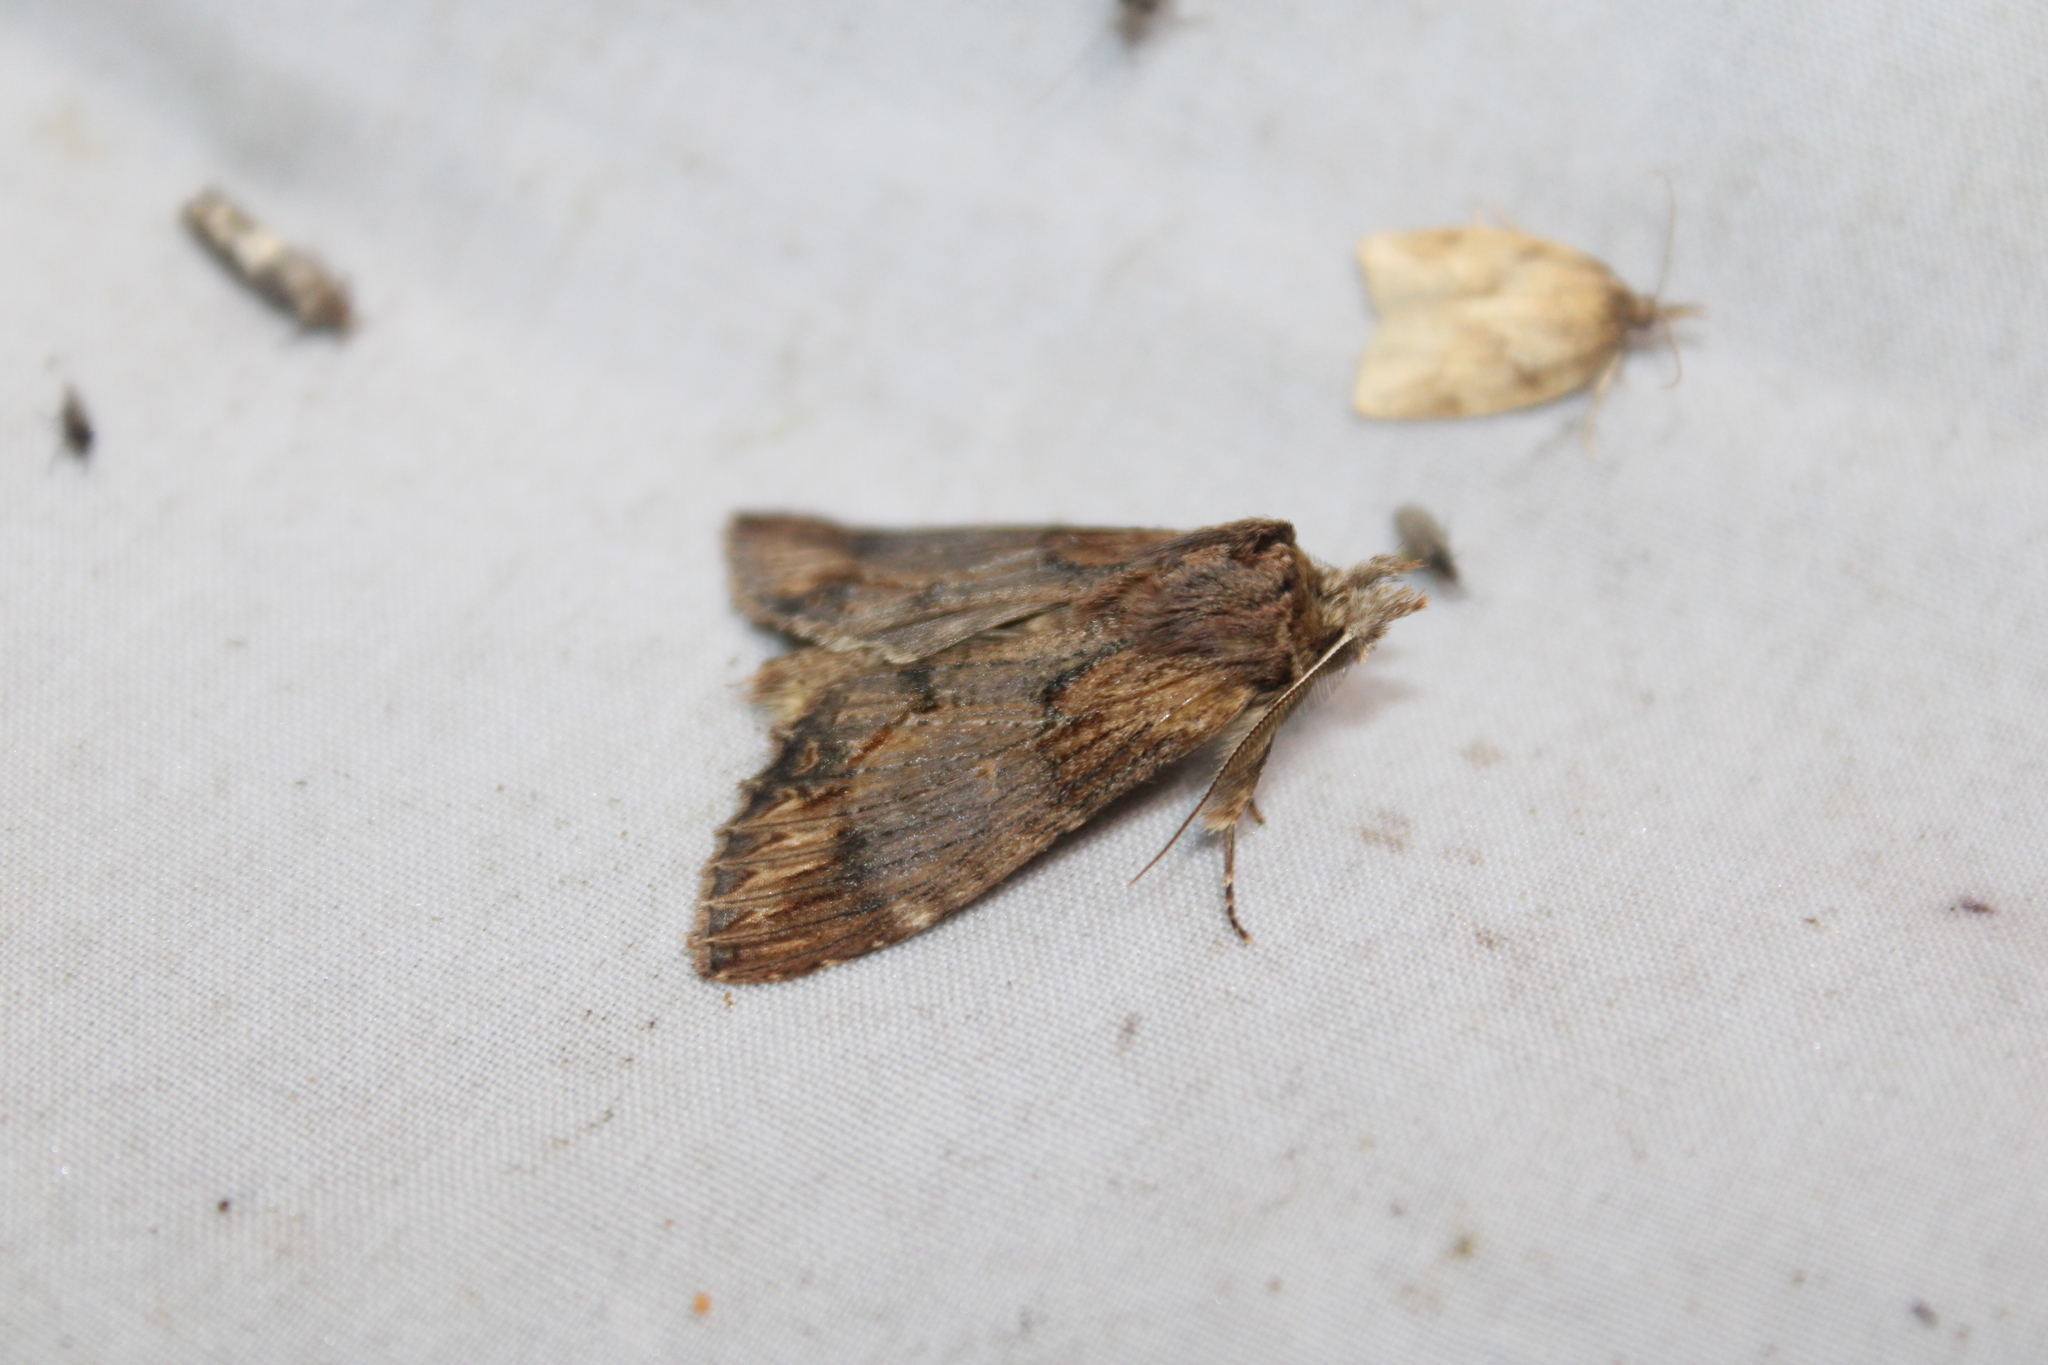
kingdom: Animalia
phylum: Arthropoda
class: Insecta
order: Lepidoptera
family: Notodontidae
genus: Dasylophia
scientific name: Dasylophia thyatiroides
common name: Gray-patched prominent
